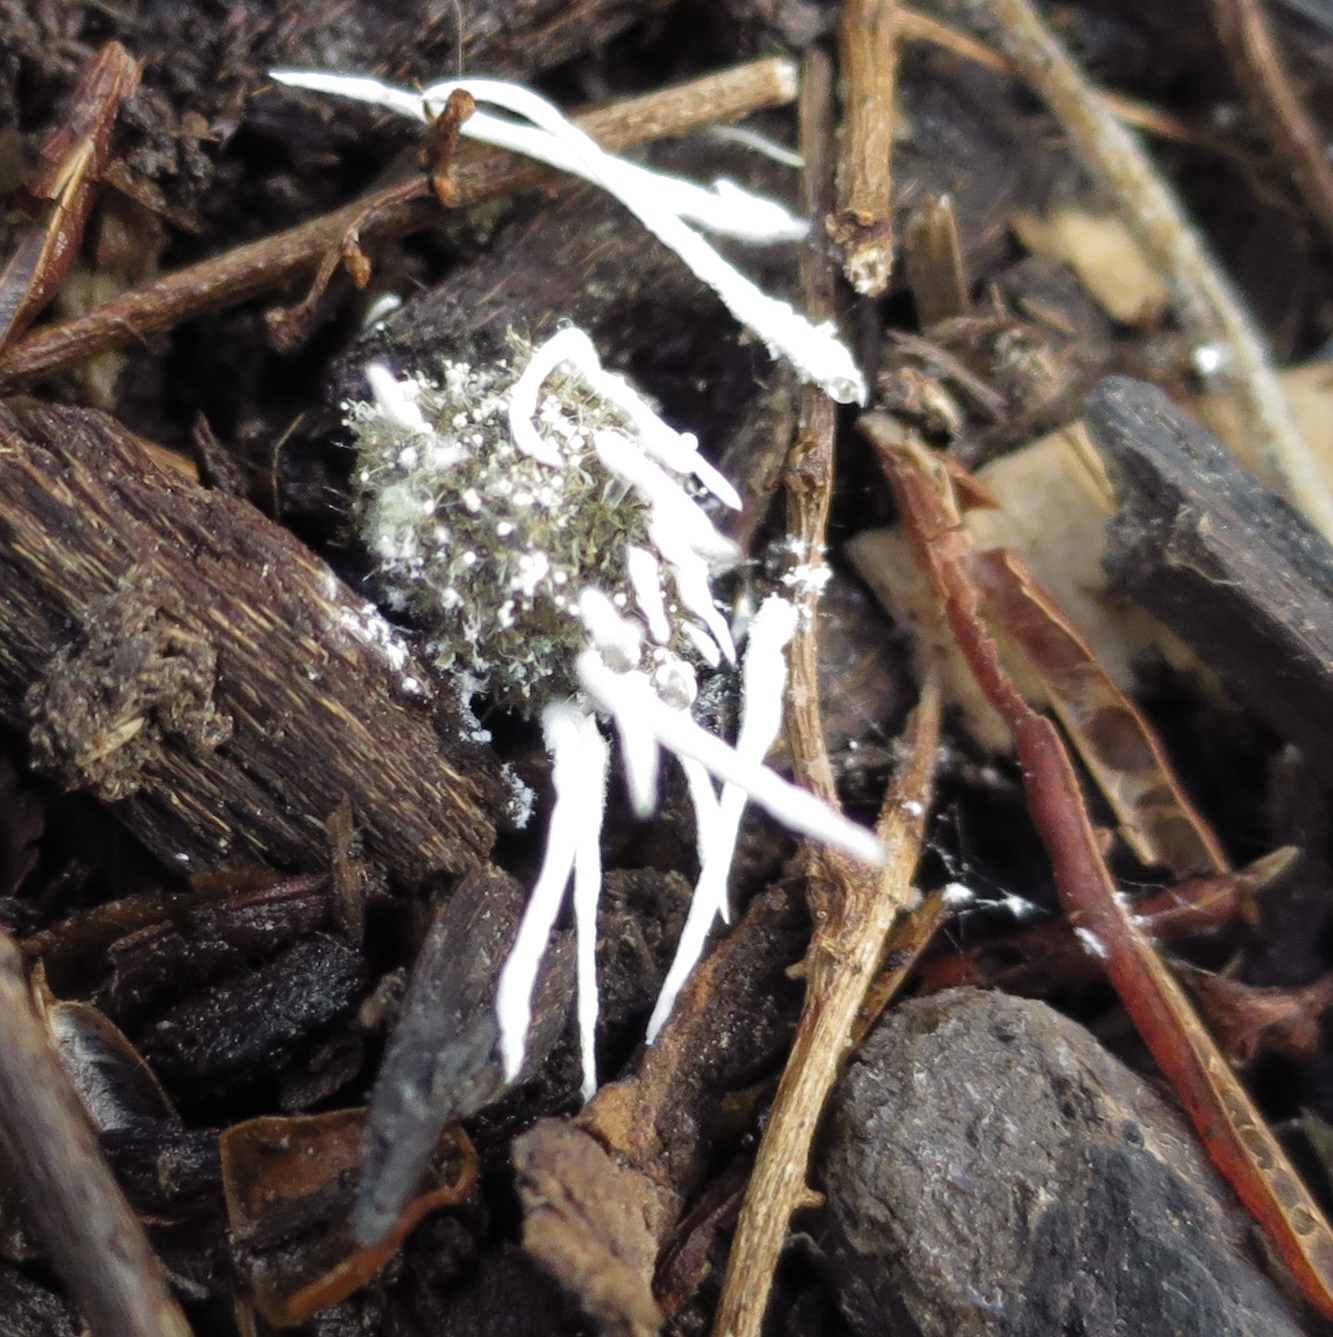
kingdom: Fungi
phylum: Ascomycota
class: Sordariomycetes
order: Hypocreales
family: Cordycipitaceae
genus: Beauveria
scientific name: Beauveria felina
